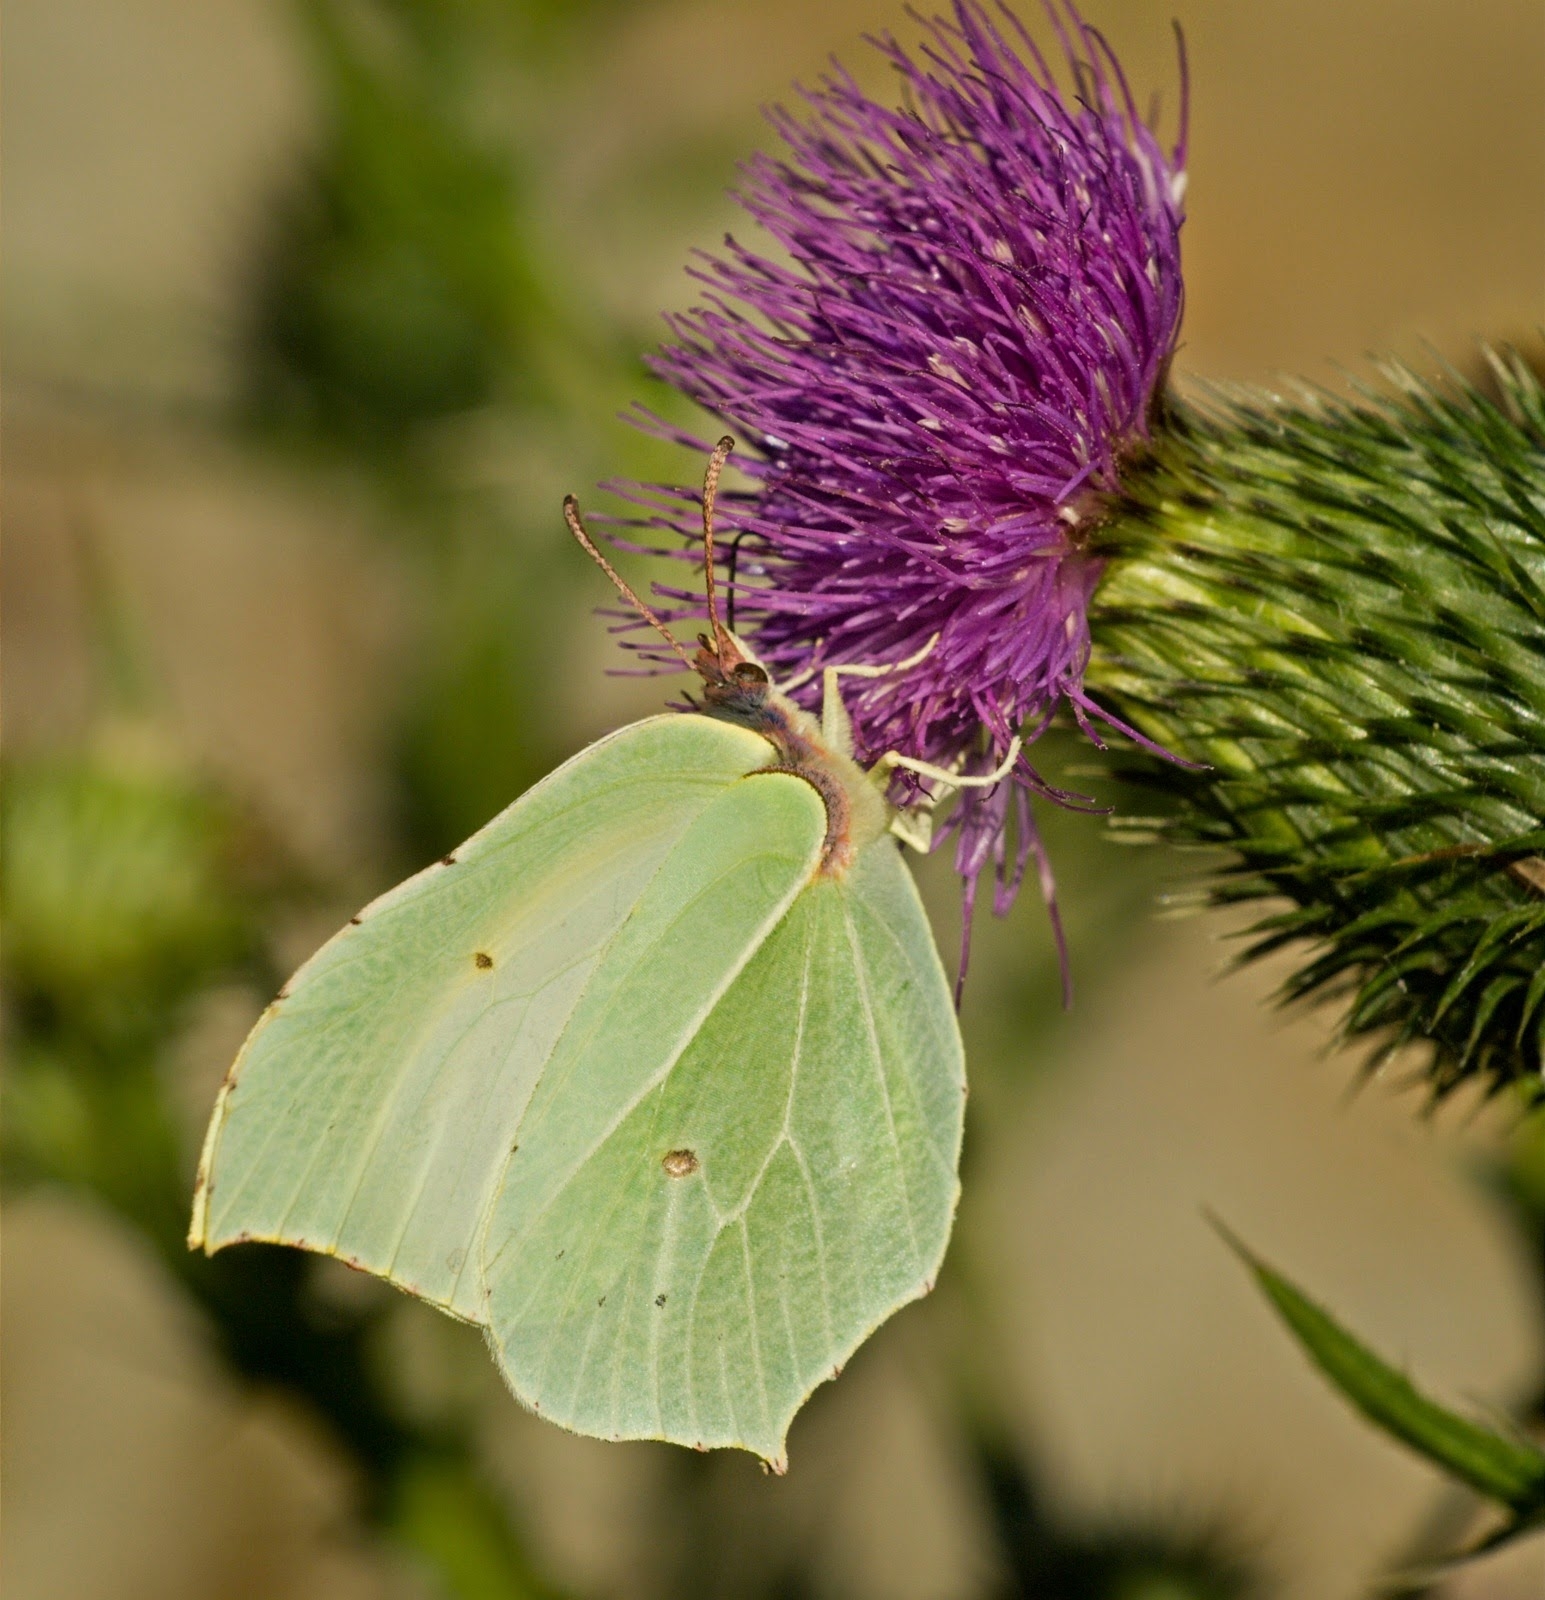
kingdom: Animalia
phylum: Arthropoda
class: Insecta
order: Lepidoptera
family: Pieridae
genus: Gonepteryx
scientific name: Gonepteryx rhamni
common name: Brimstone
